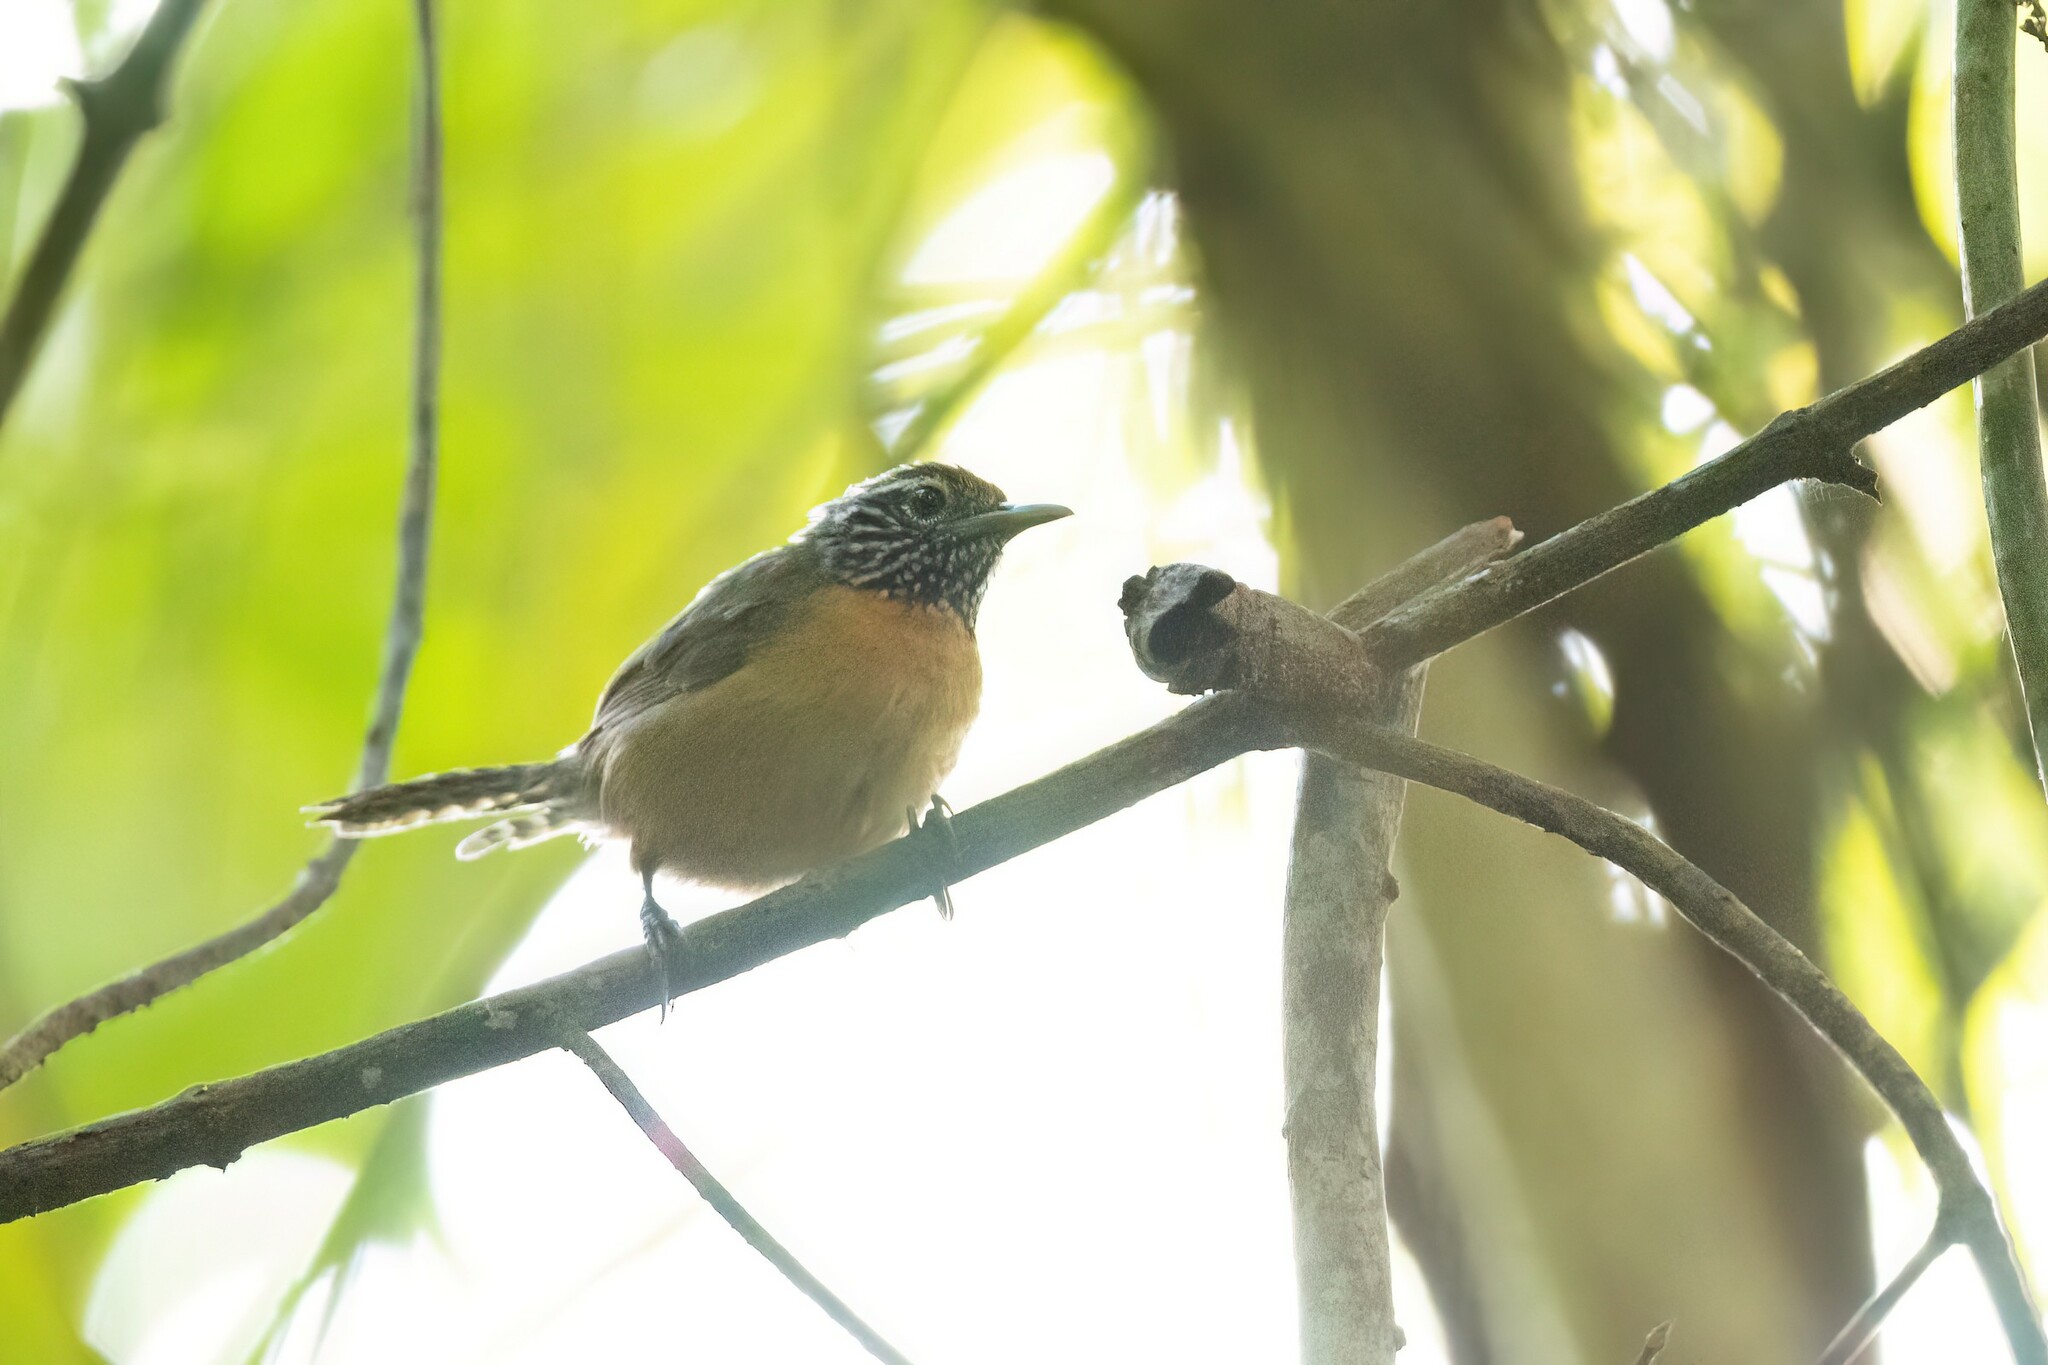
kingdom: Animalia
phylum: Chordata
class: Aves
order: Passeriformes
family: Troglodytidae
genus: Pheugopedius
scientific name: Pheugopedius rutilus
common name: Rufous-breasted wren
